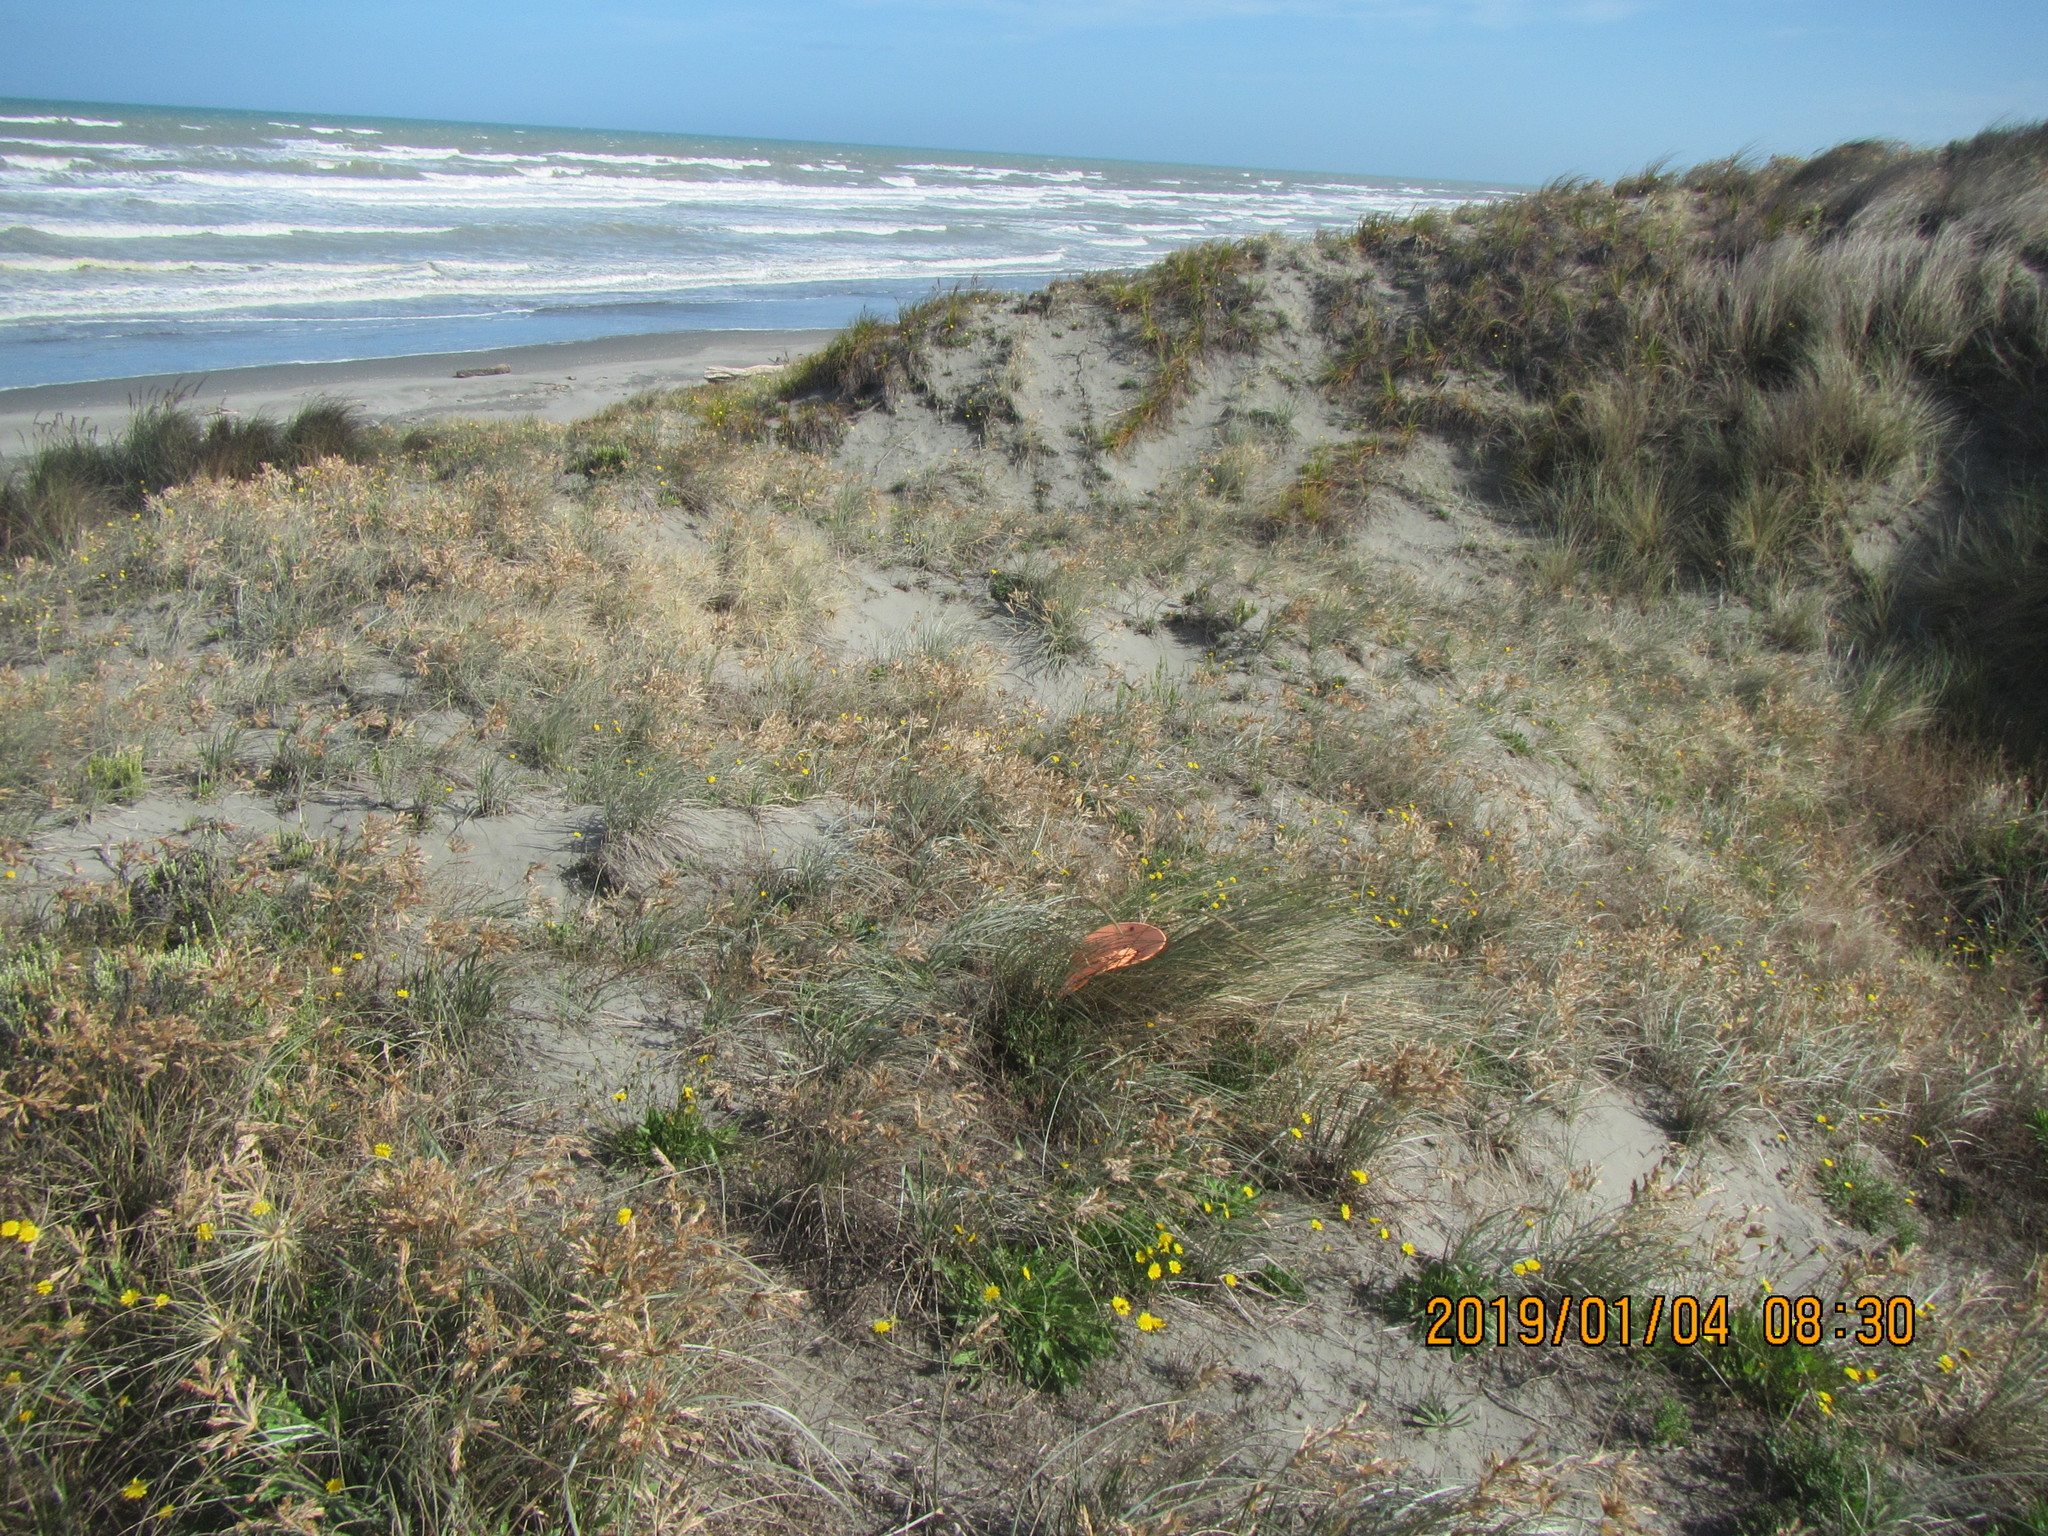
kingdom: Animalia
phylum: Arthropoda
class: Arachnida
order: Araneae
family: Gnaphosidae
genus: Scotophaeus
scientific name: Scotophaeus pretiosus
